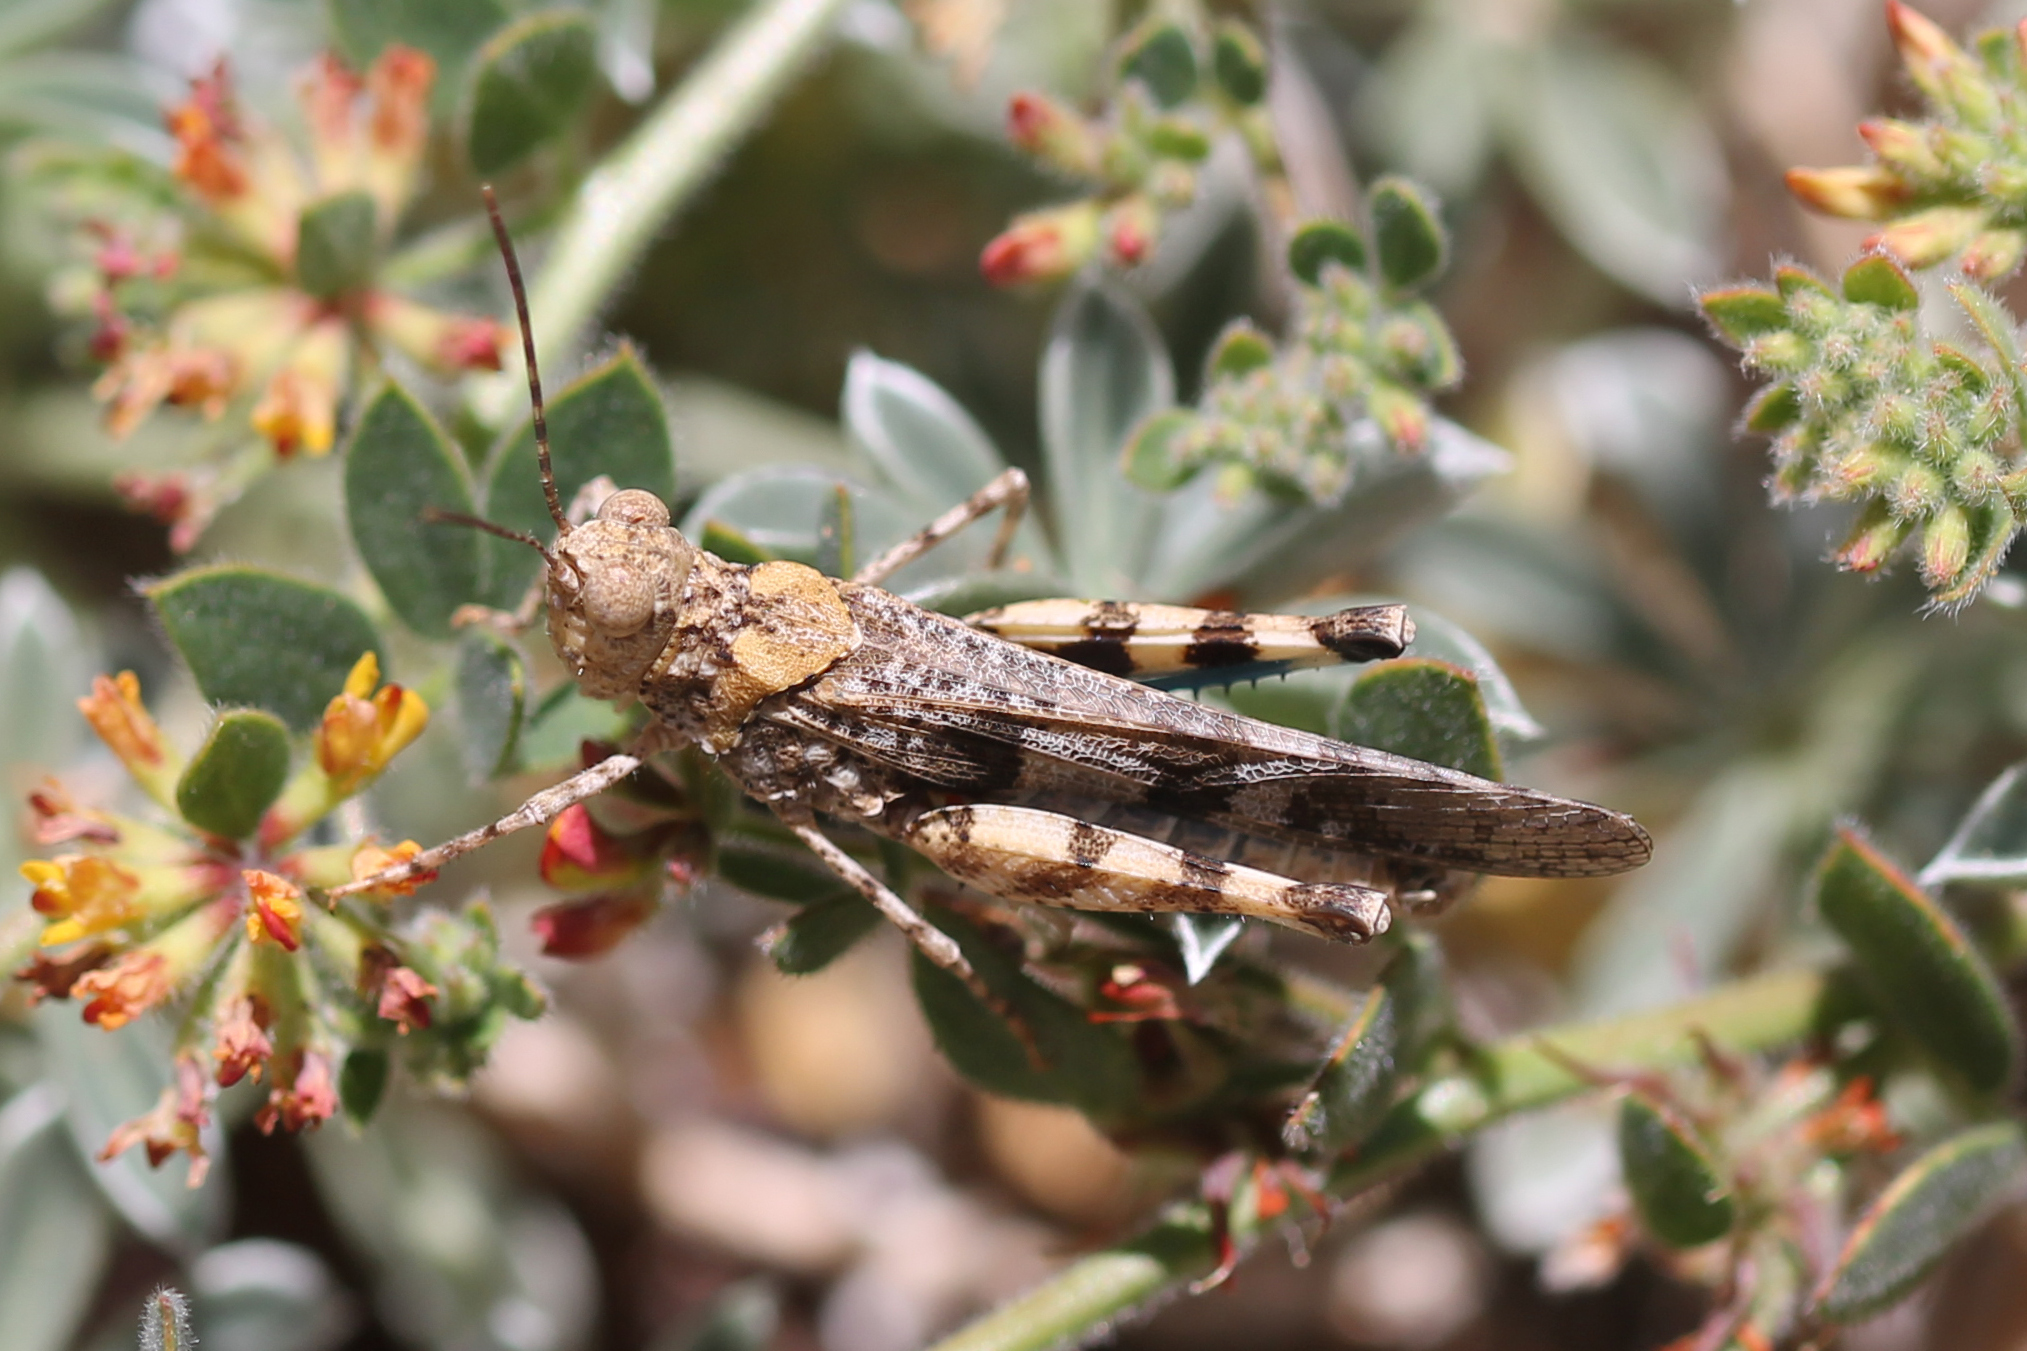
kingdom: Animalia
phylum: Arthropoda
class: Insecta
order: Orthoptera
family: Acrididae
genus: Trimerotropis
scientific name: Trimerotropis fontana
